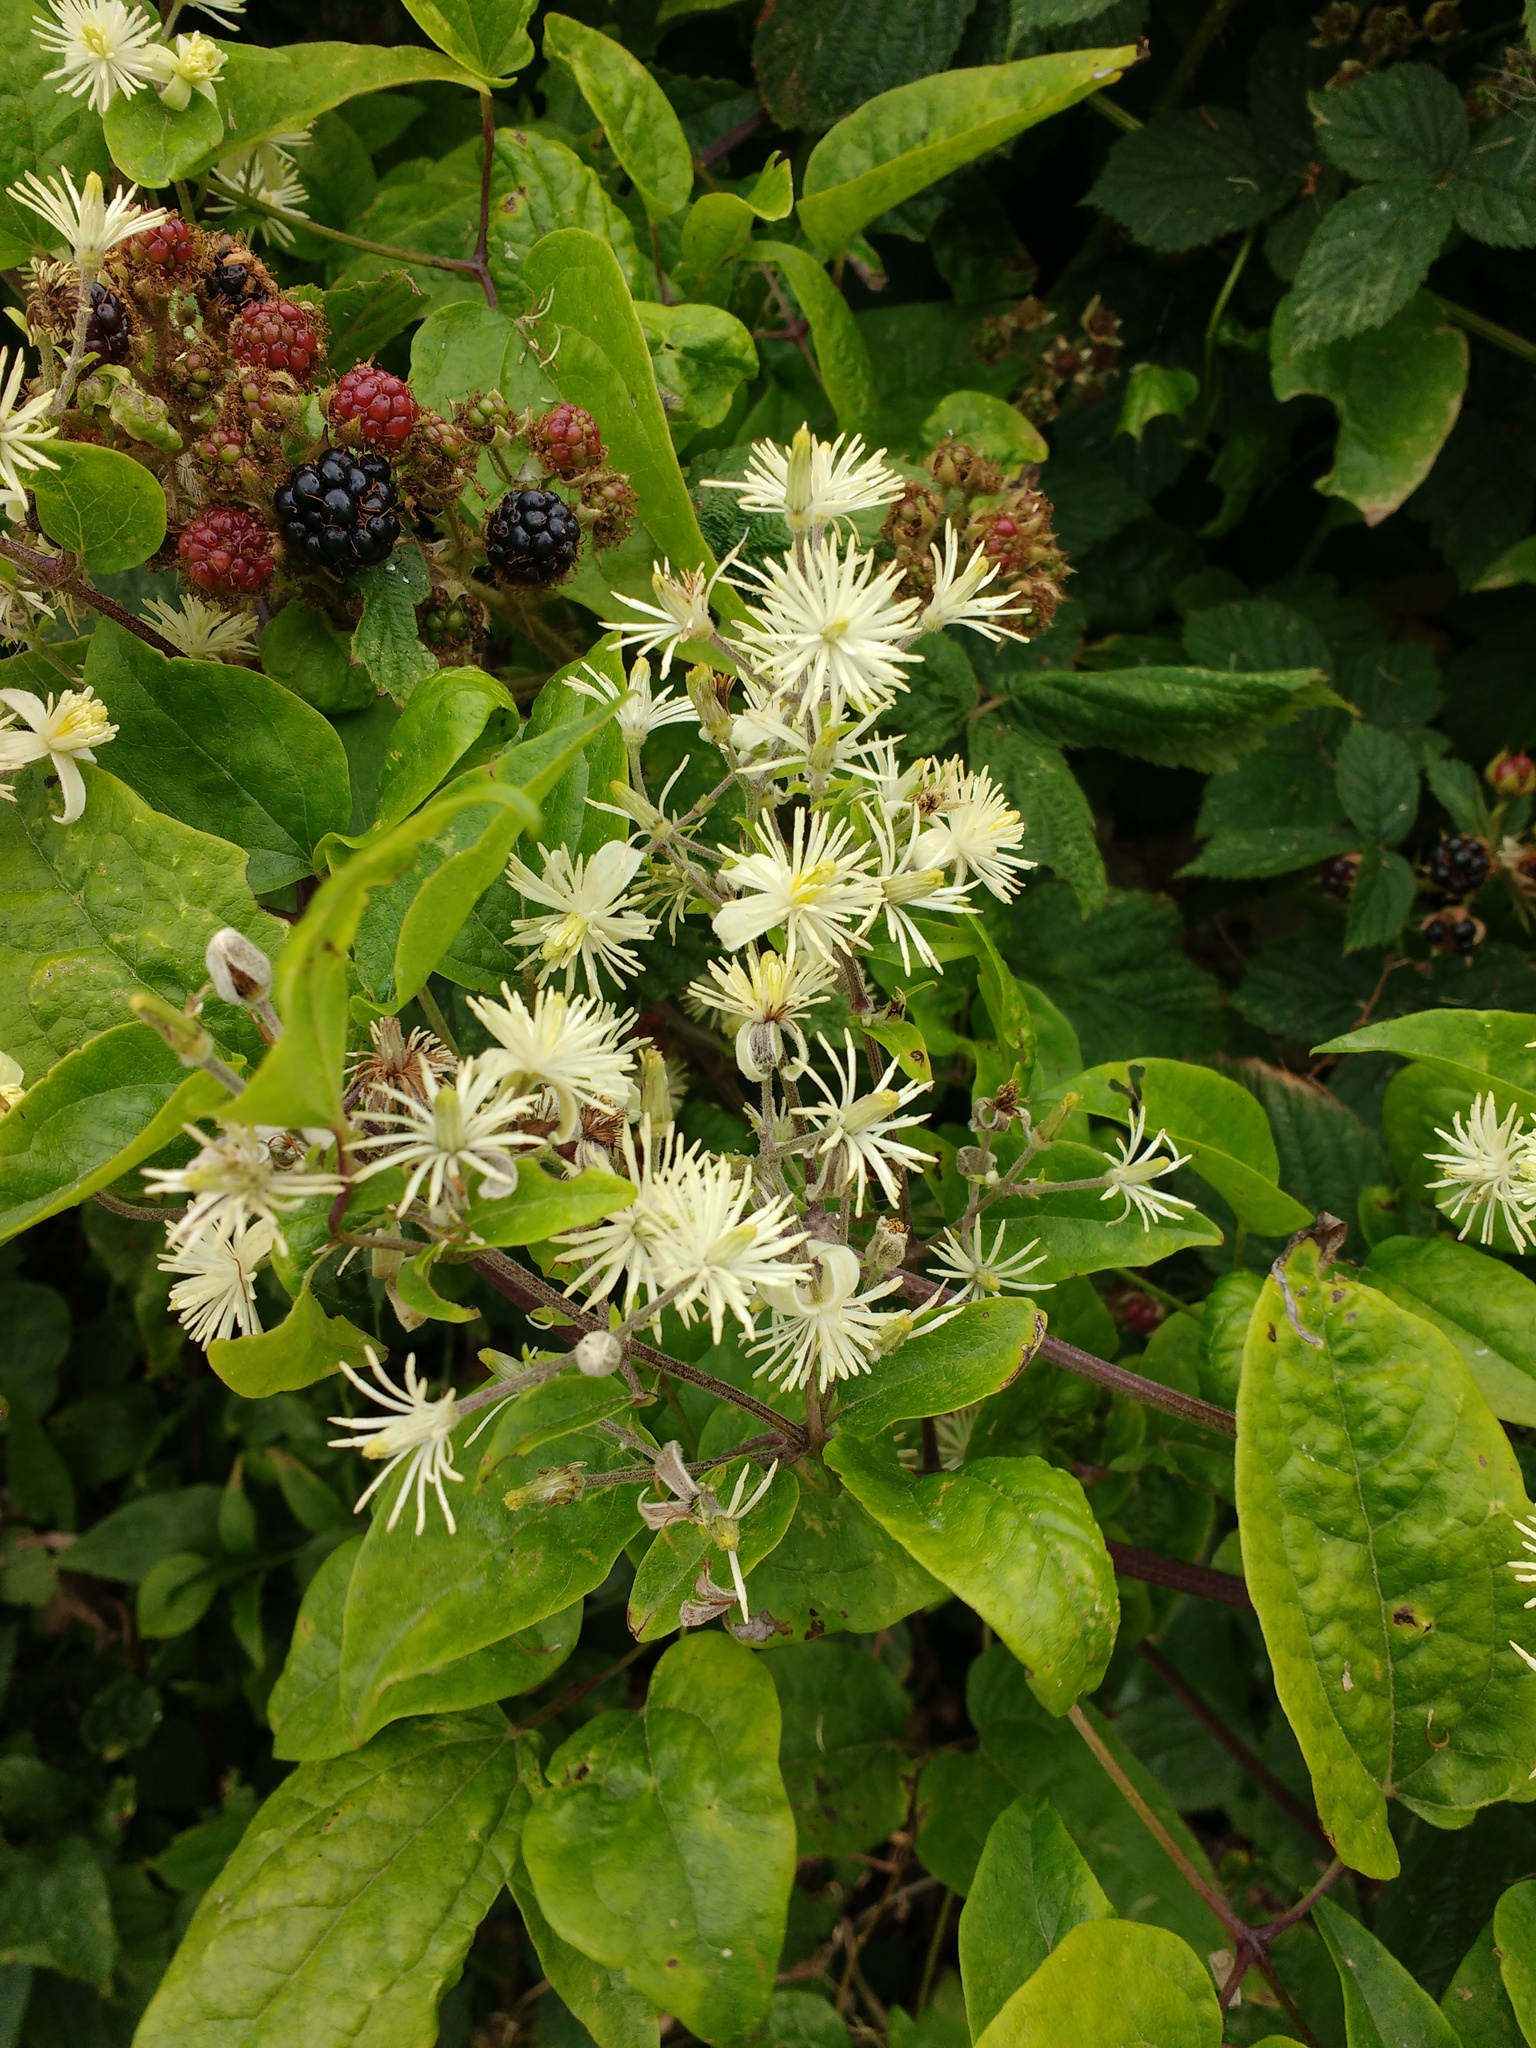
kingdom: Plantae
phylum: Tracheophyta
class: Magnoliopsida
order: Ranunculales
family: Ranunculaceae
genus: Clematis
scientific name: Clematis vitalba
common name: Evergreen clematis
